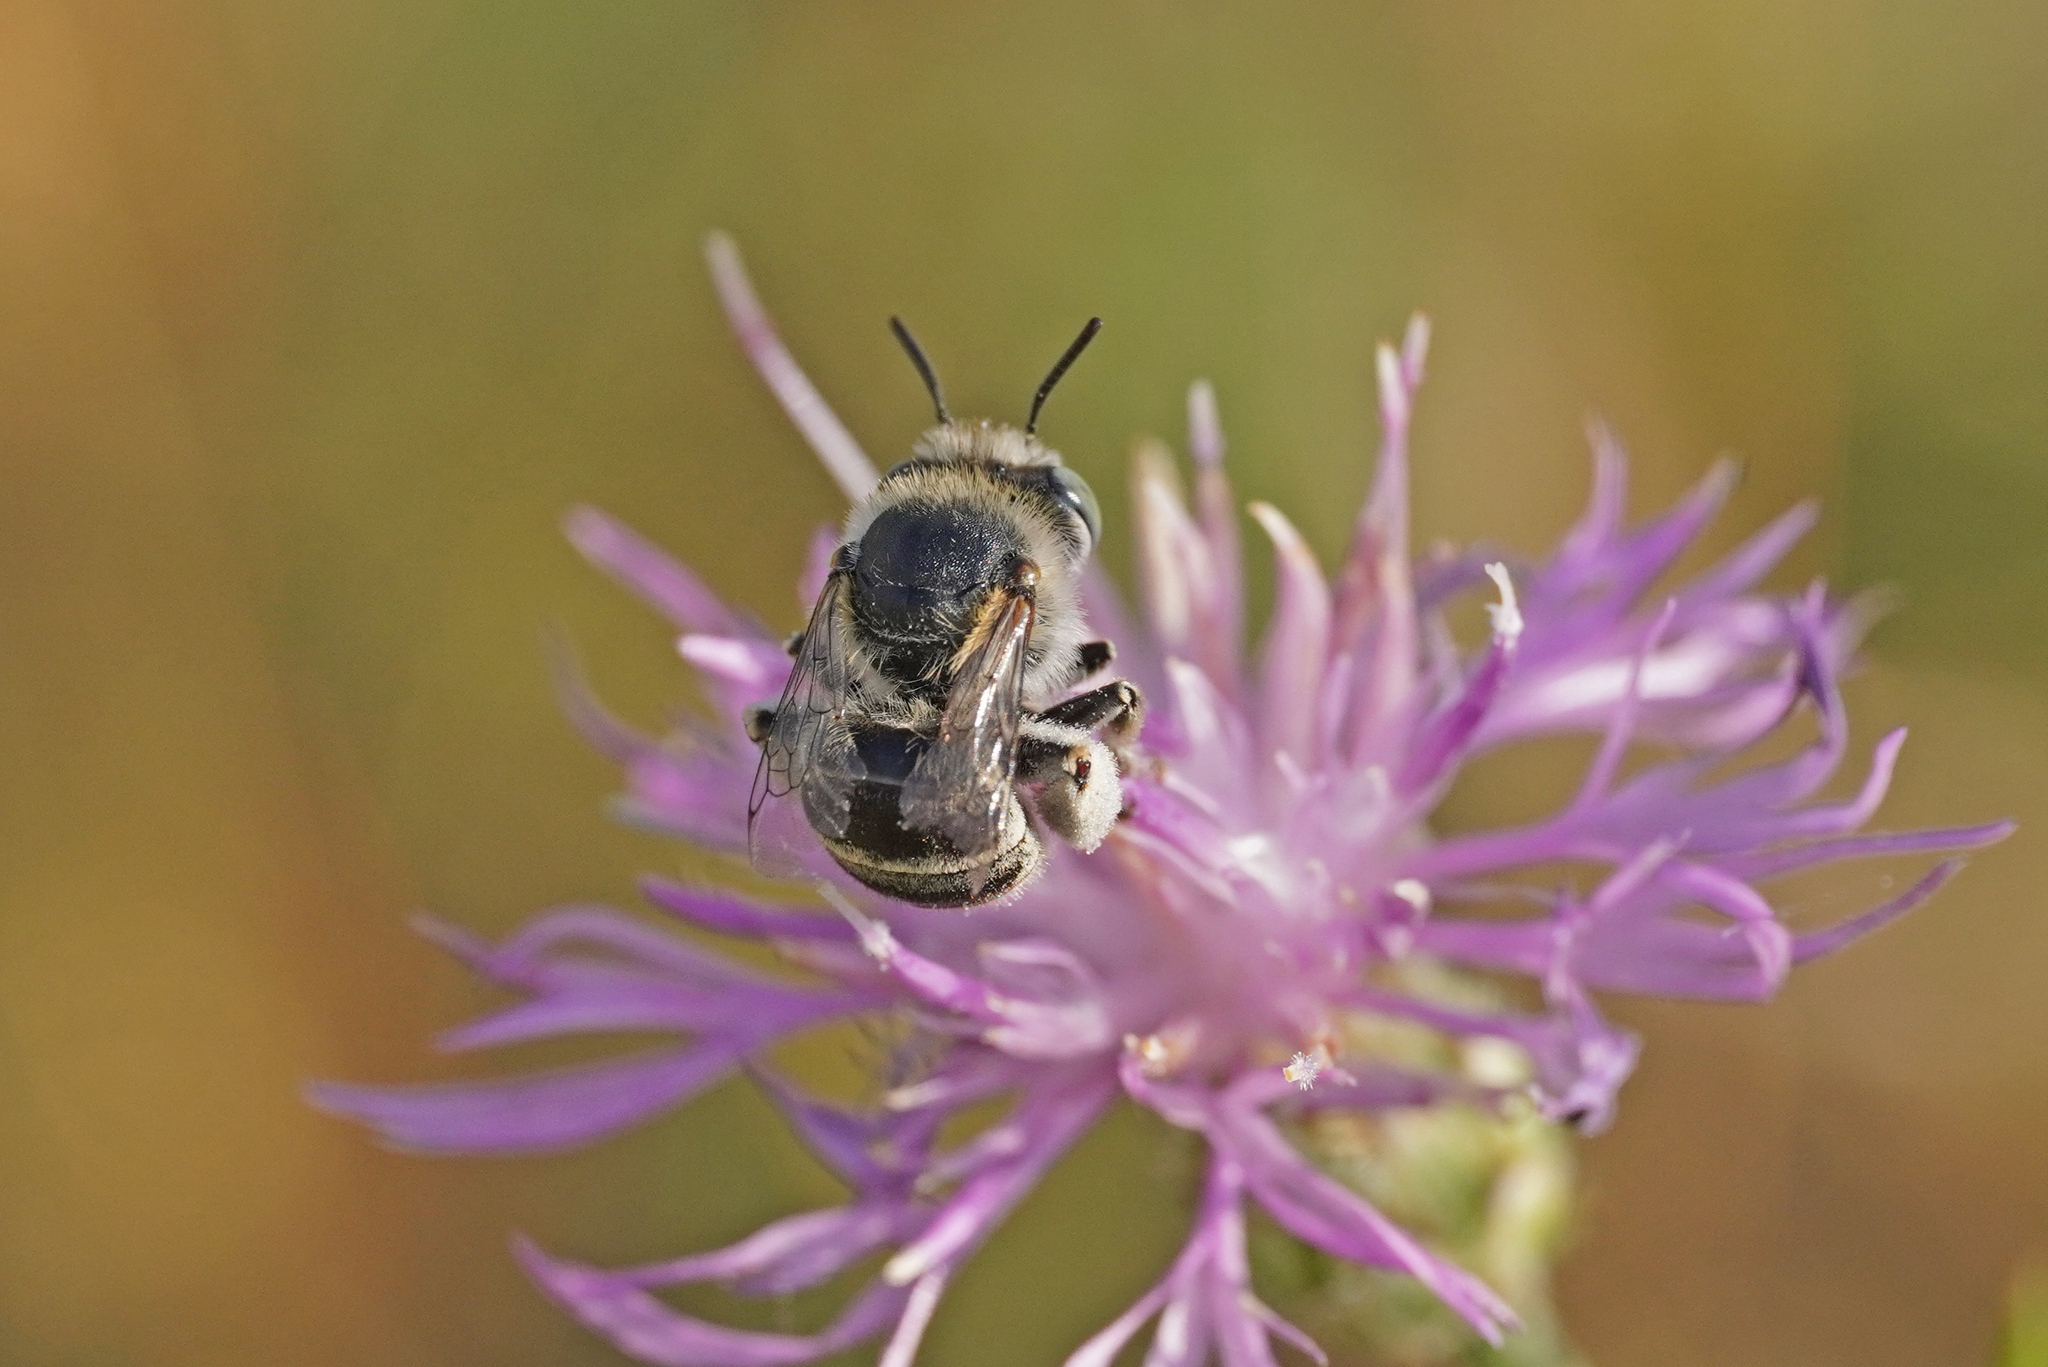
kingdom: Animalia
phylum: Arthropoda
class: Insecta
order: Hymenoptera
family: Apidae
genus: Anthophora
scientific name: Anthophora bimaculata
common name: Green-eyed flower bee
